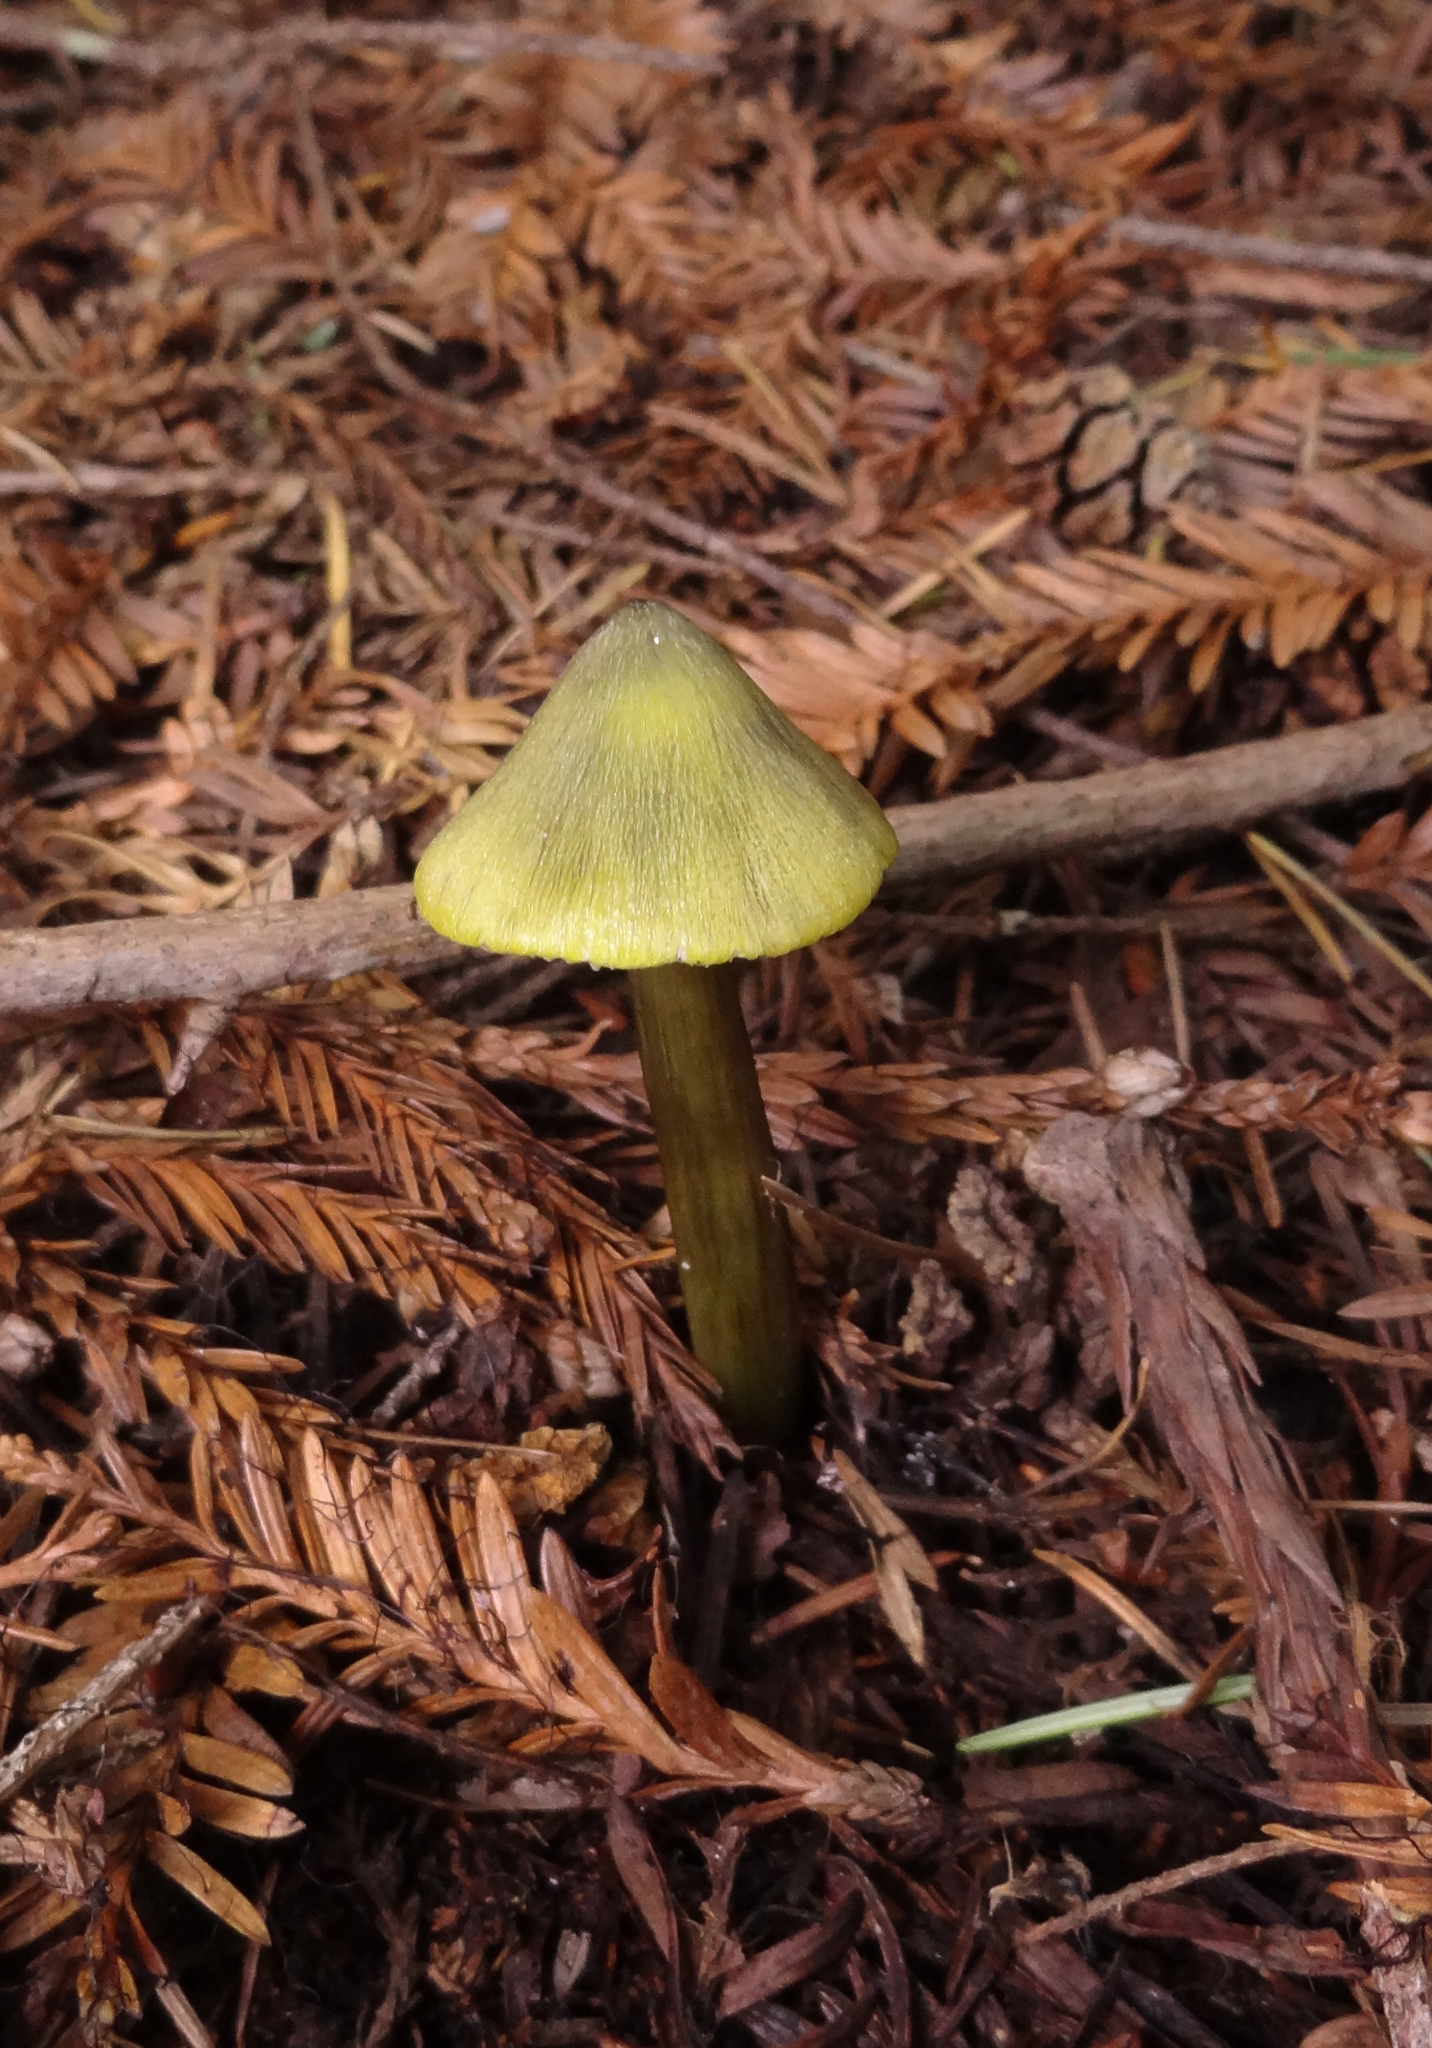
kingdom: Fungi
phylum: Basidiomycota
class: Agaricomycetes
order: Agaricales
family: Hygrophoraceae
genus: Hygrocybe
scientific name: Hygrocybe singeri
